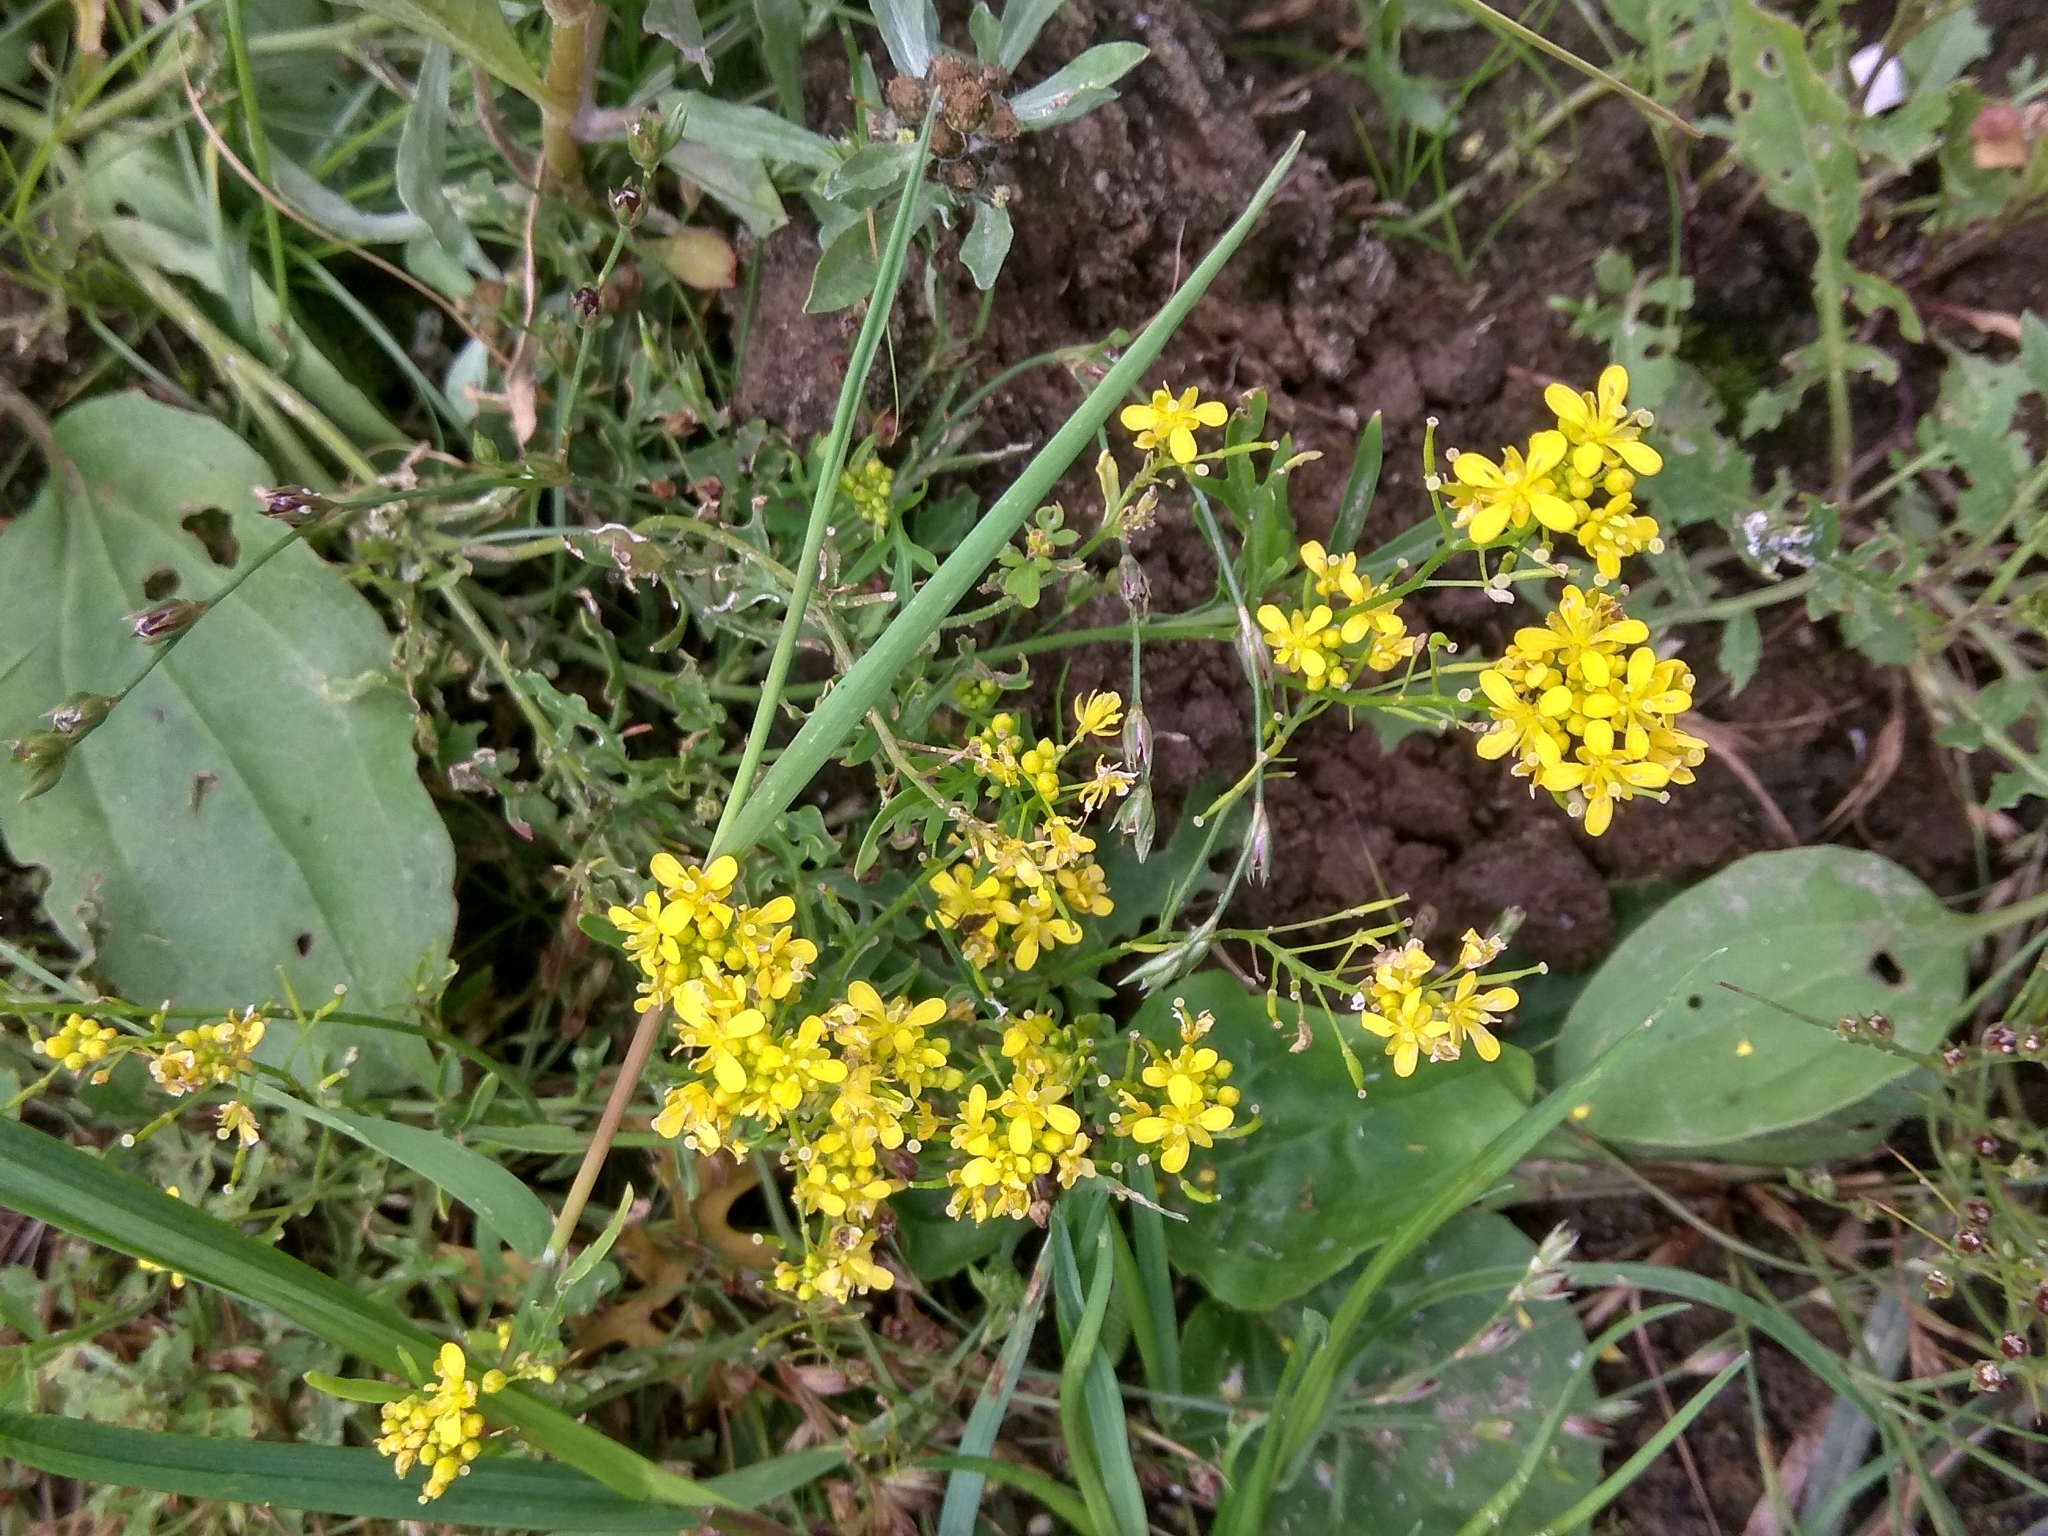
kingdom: Plantae
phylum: Tracheophyta
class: Magnoliopsida
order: Brassicales
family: Brassicaceae
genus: Rorippa
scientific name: Rorippa sylvestris
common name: Creeping yellowcress
